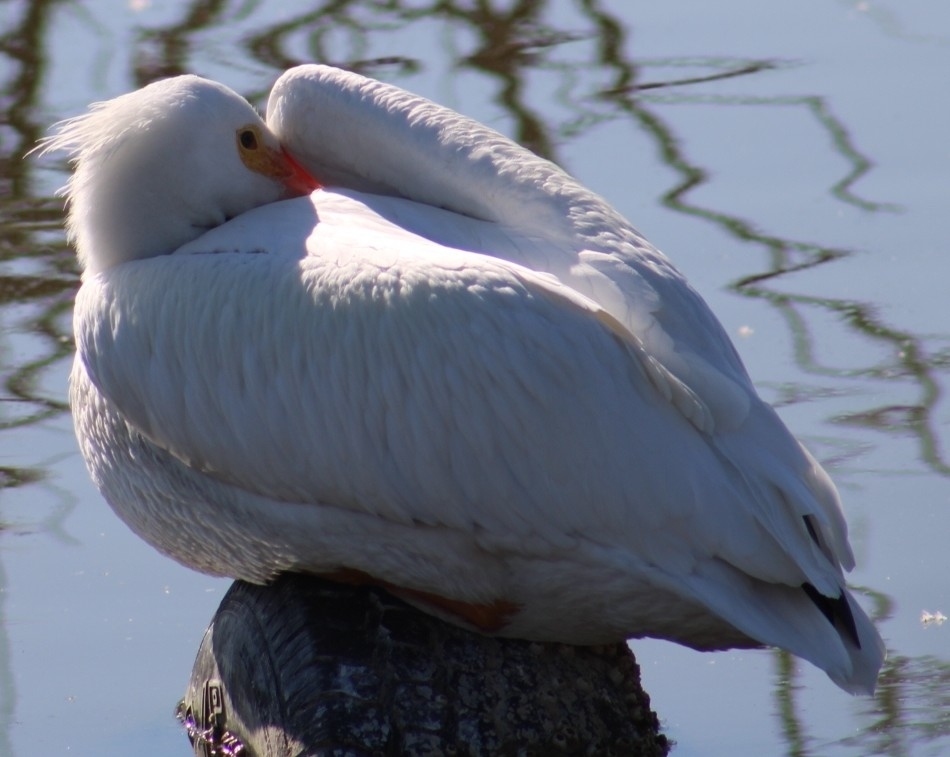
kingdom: Animalia
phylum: Chordata
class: Aves
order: Pelecaniformes
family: Pelecanidae
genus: Pelecanus
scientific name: Pelecanus erythrorhynchos
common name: American white pelican
